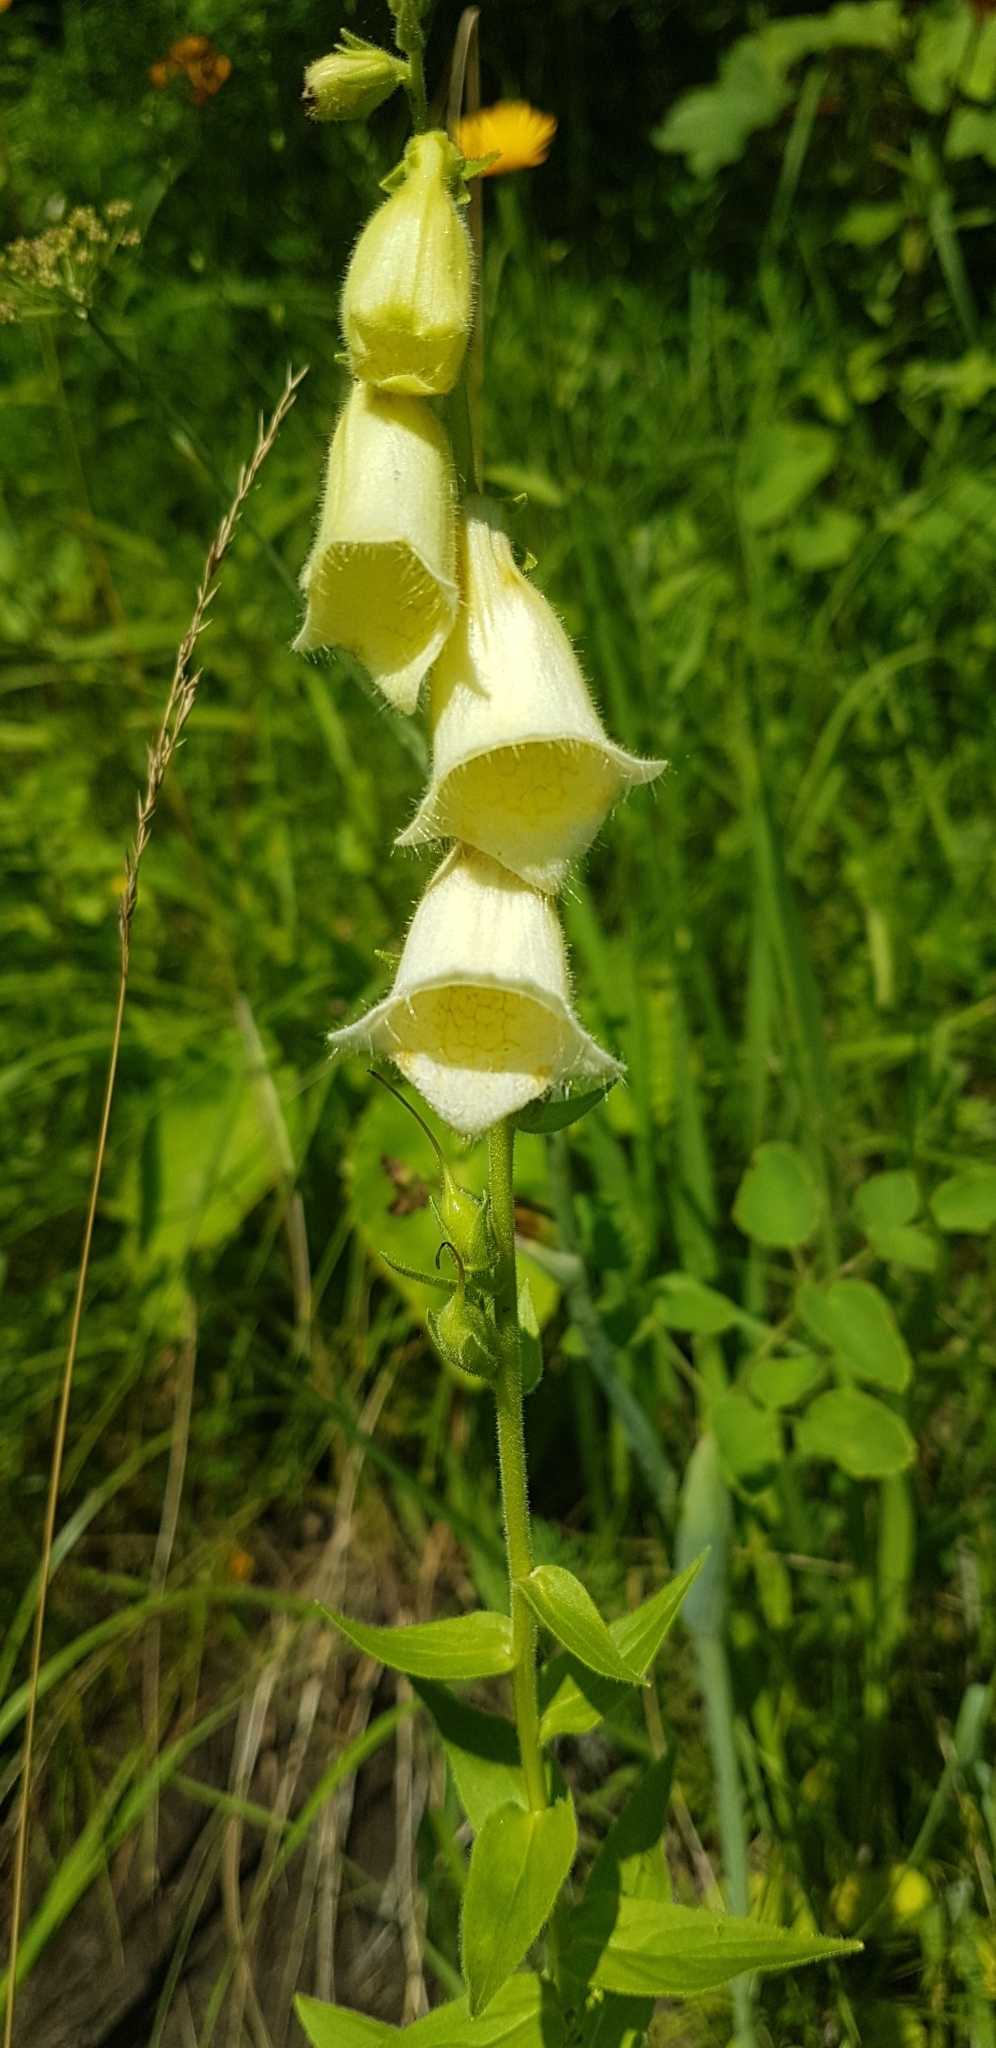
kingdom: Plantae
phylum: Tracheophyta
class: Magnoliopsida
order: Lamiales
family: Plantaginaceae
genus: Digitalis
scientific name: Digitalis grandiflora
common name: Yellow foxglove
